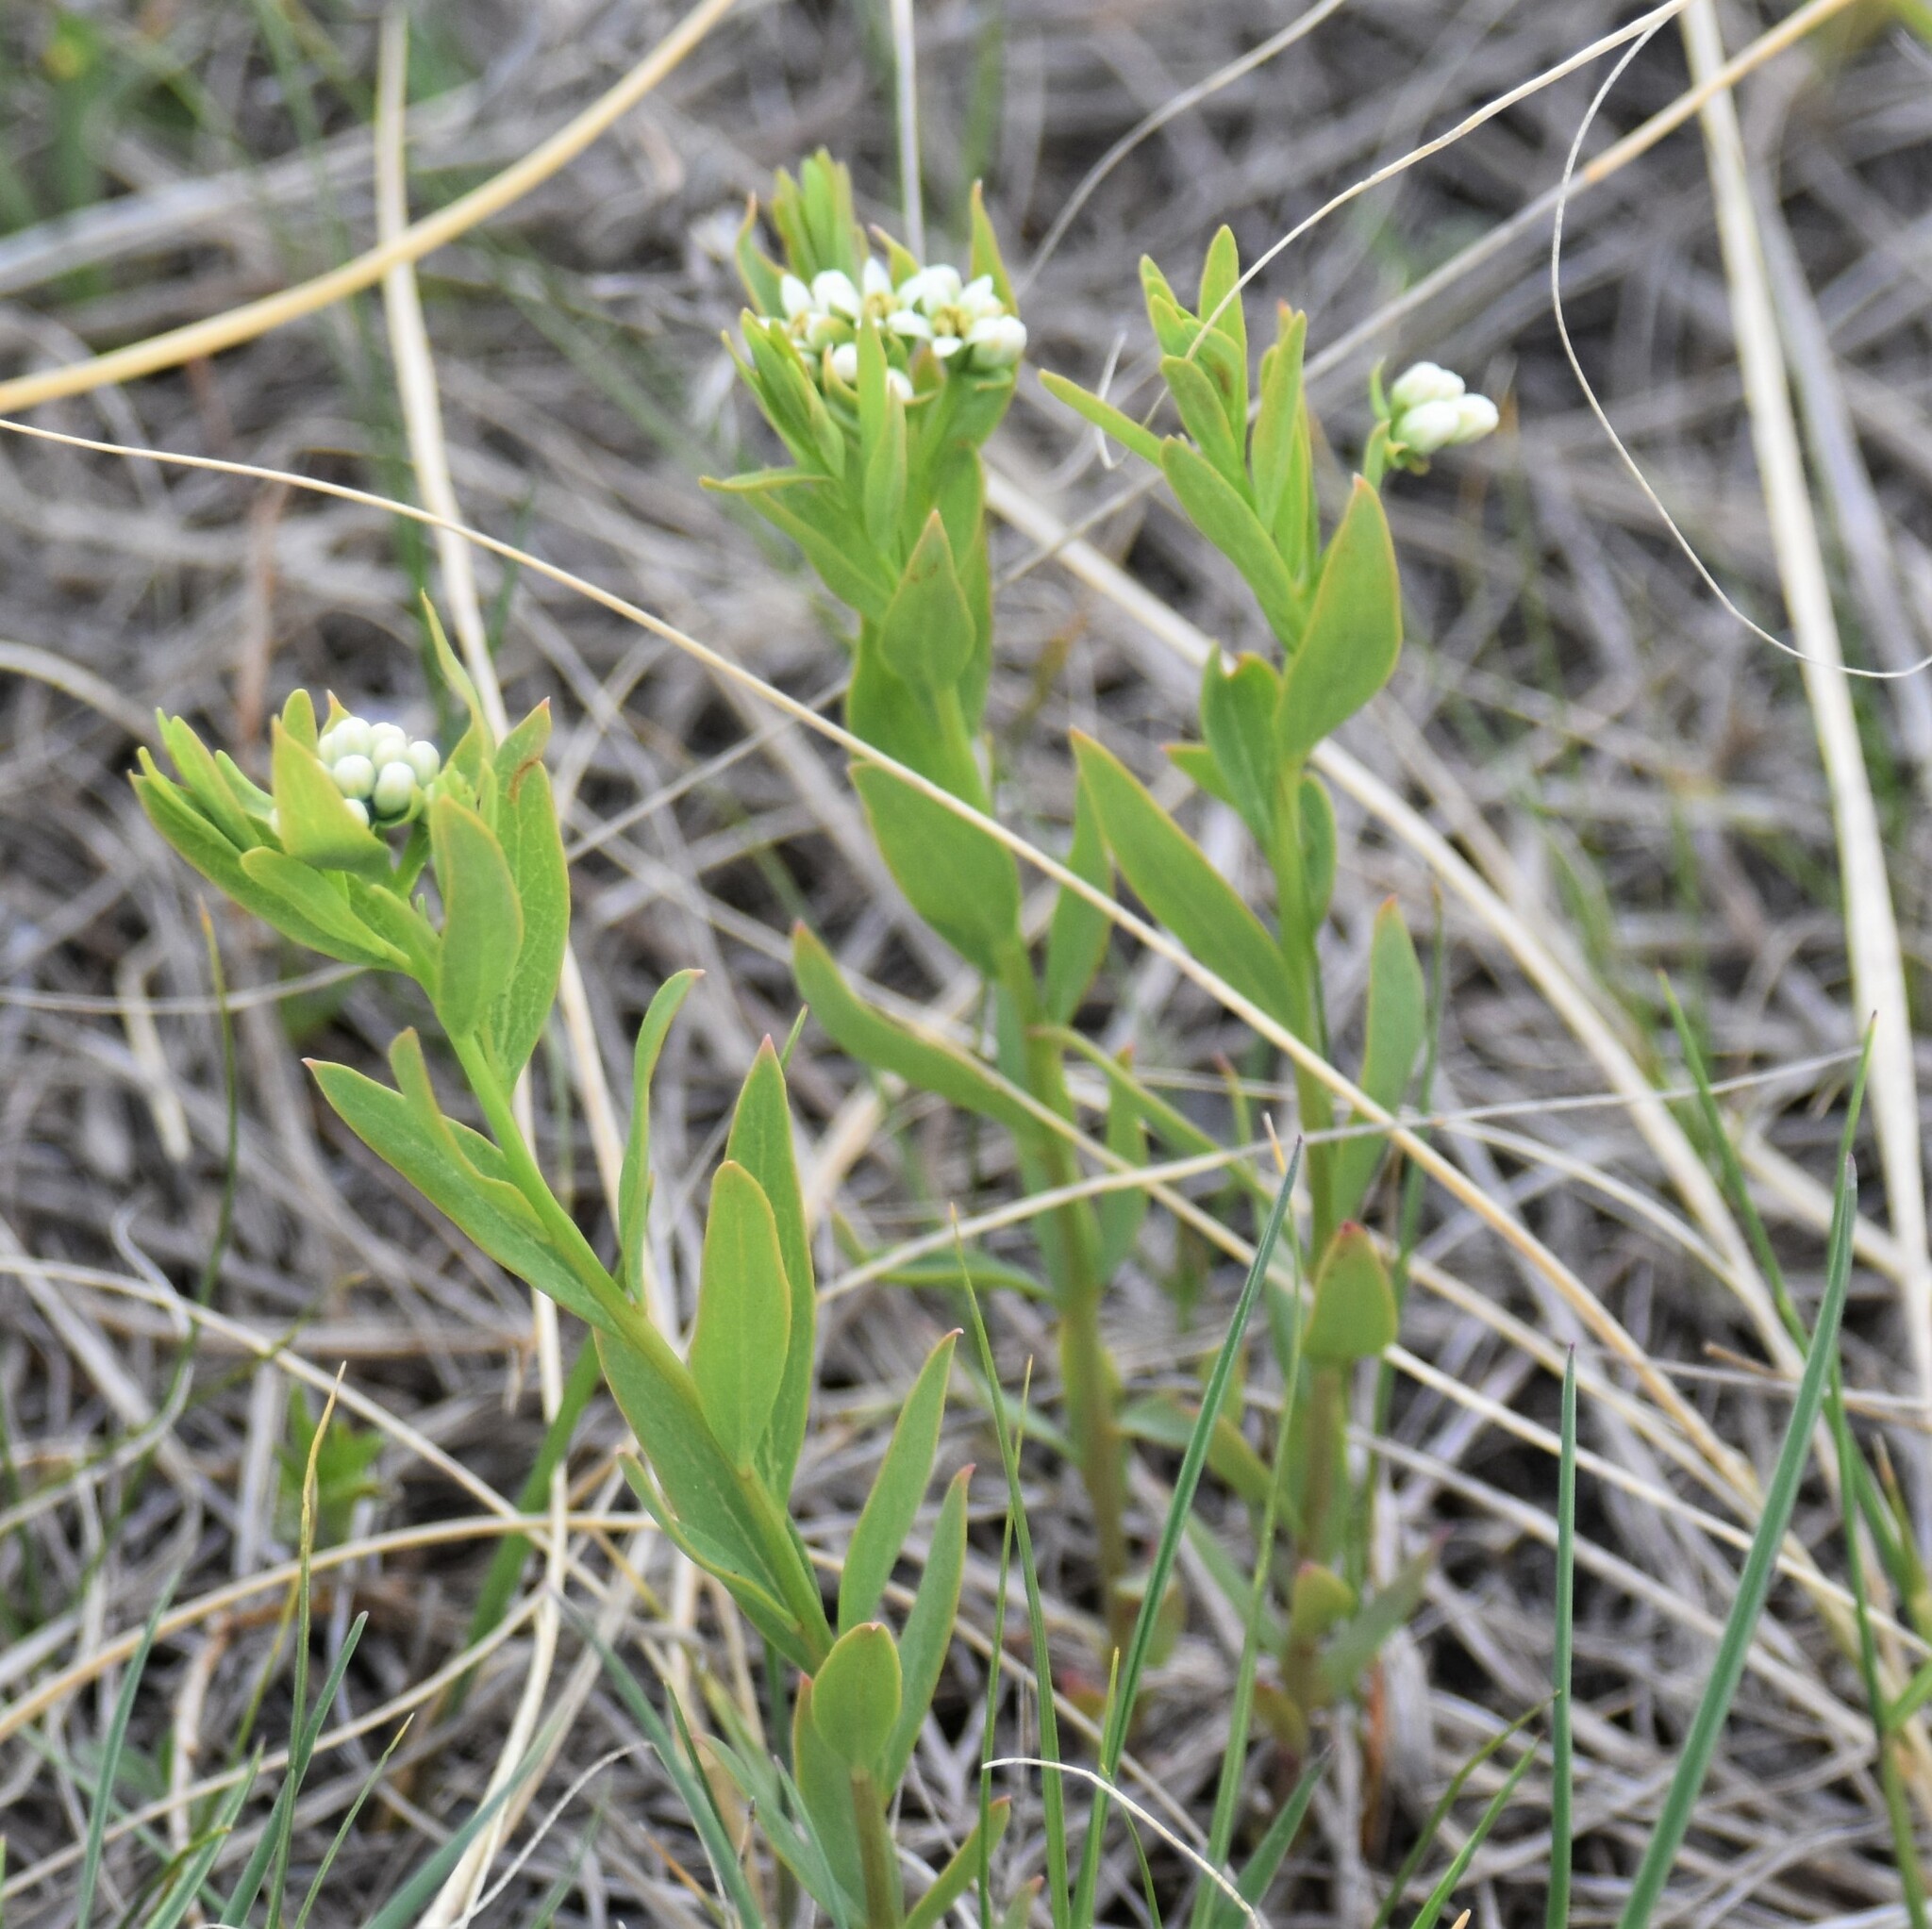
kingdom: Plantae
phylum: Tracheophyta
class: Magnoliopsida
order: Santalales
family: Comandraceae
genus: Comandra
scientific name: Comandra umbellata
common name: Bastard toadflax
